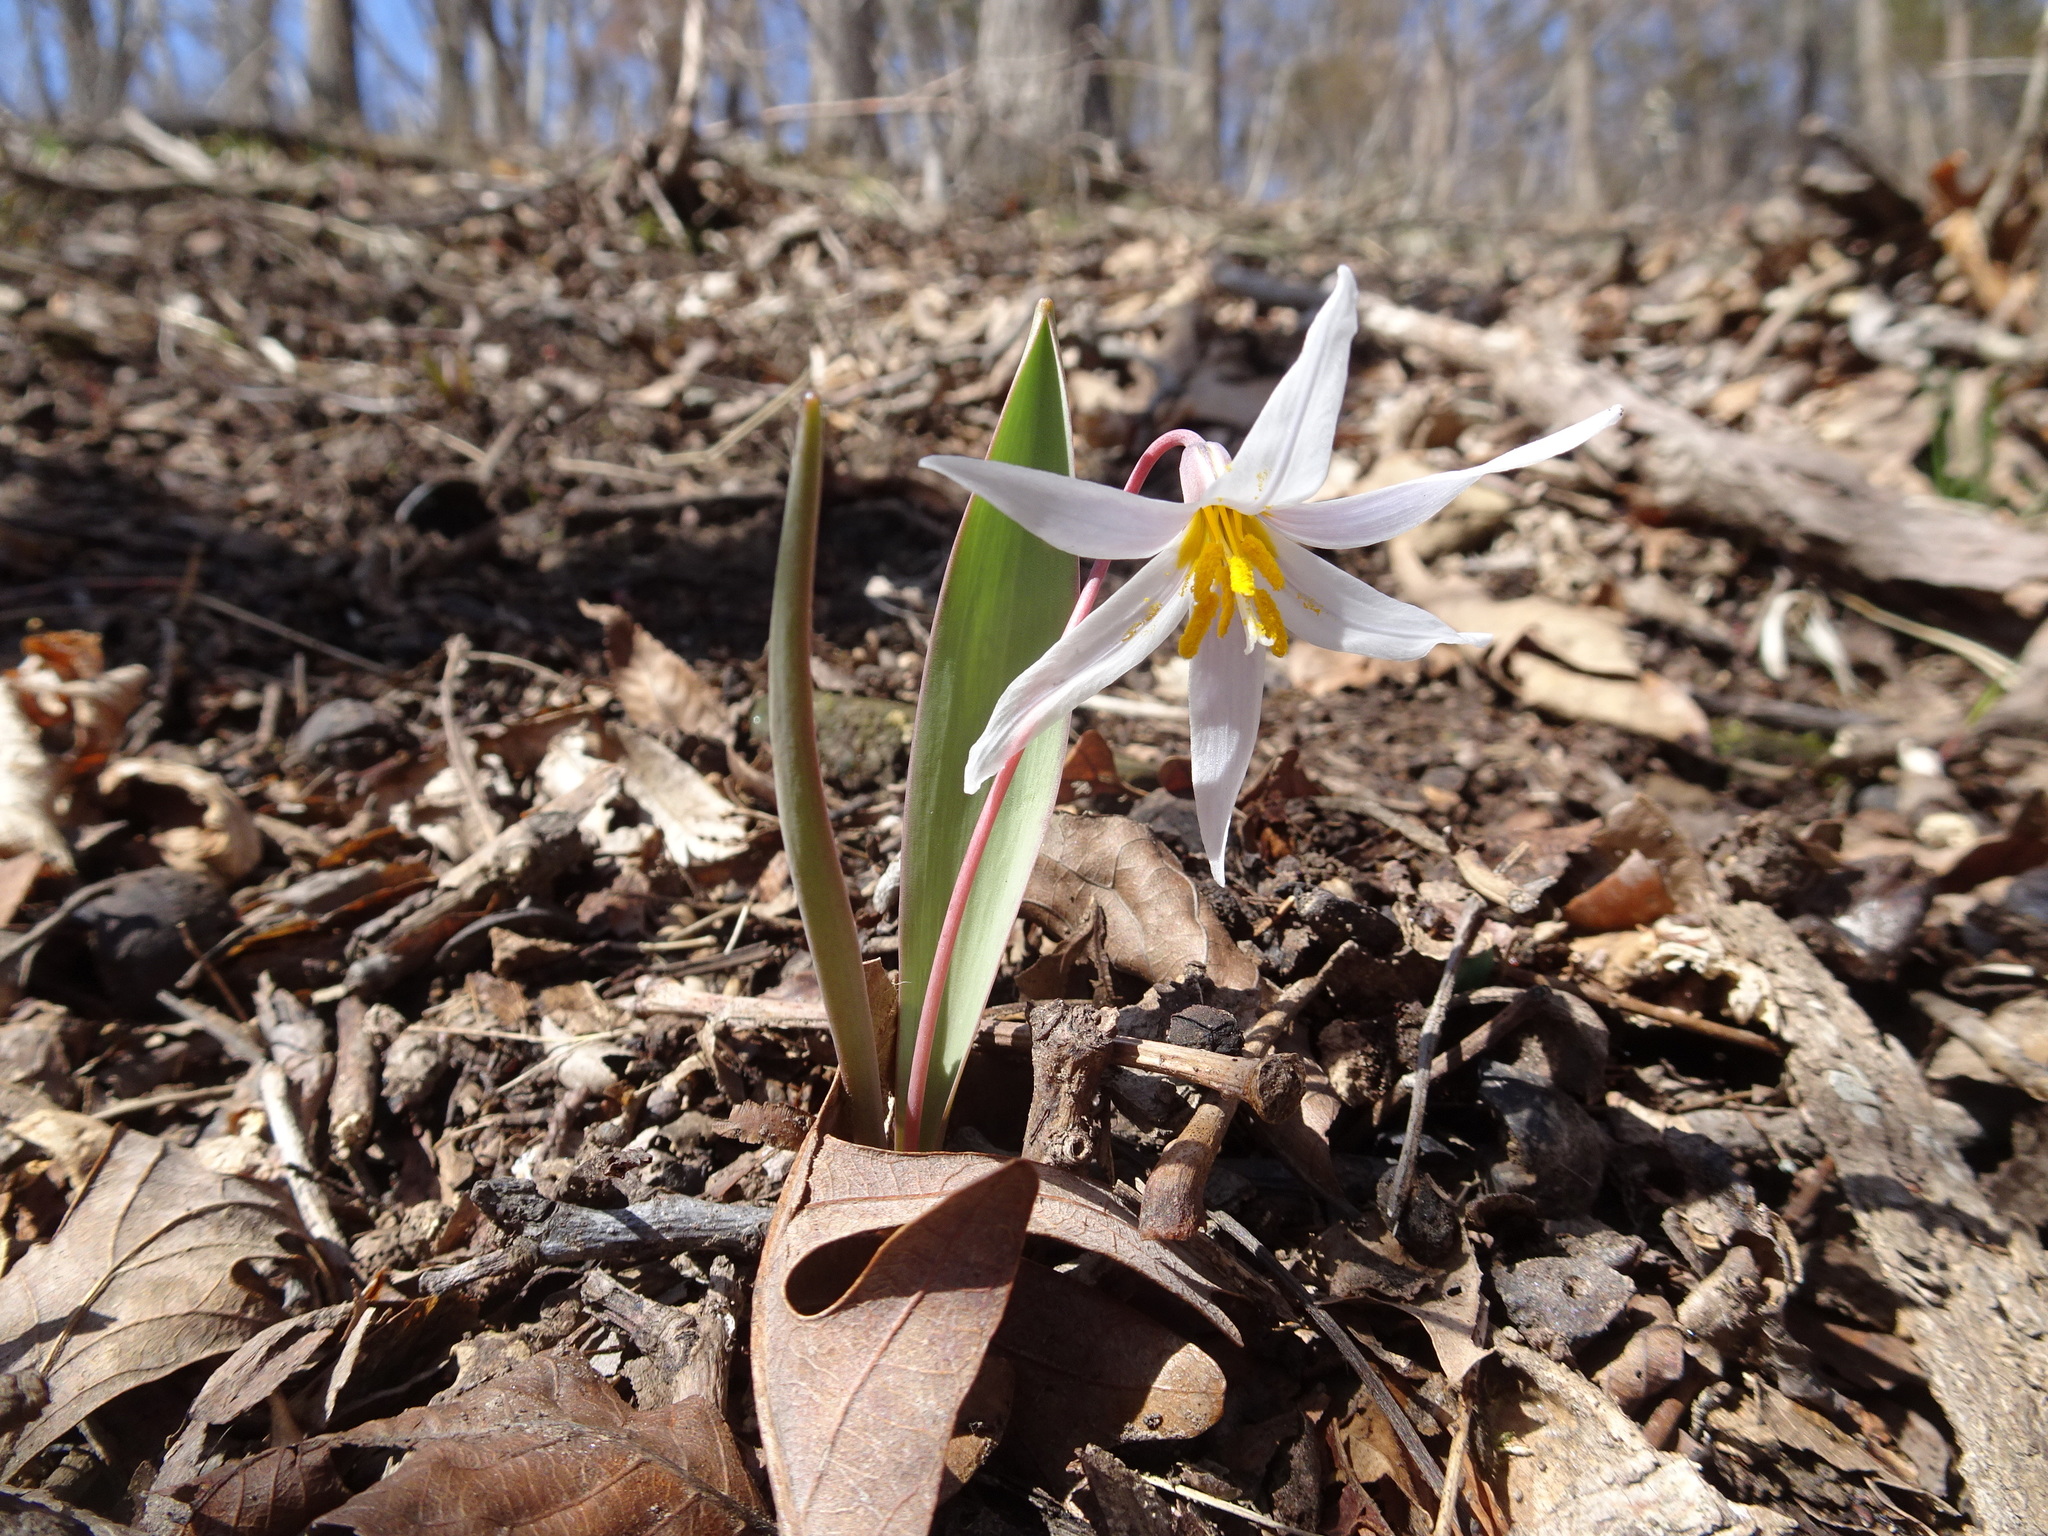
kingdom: Plantae
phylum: Tracheophyta
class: Liliopsida
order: Liliales
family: Liliaceae
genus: Erythronium
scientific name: Erythronium mesochoreum
